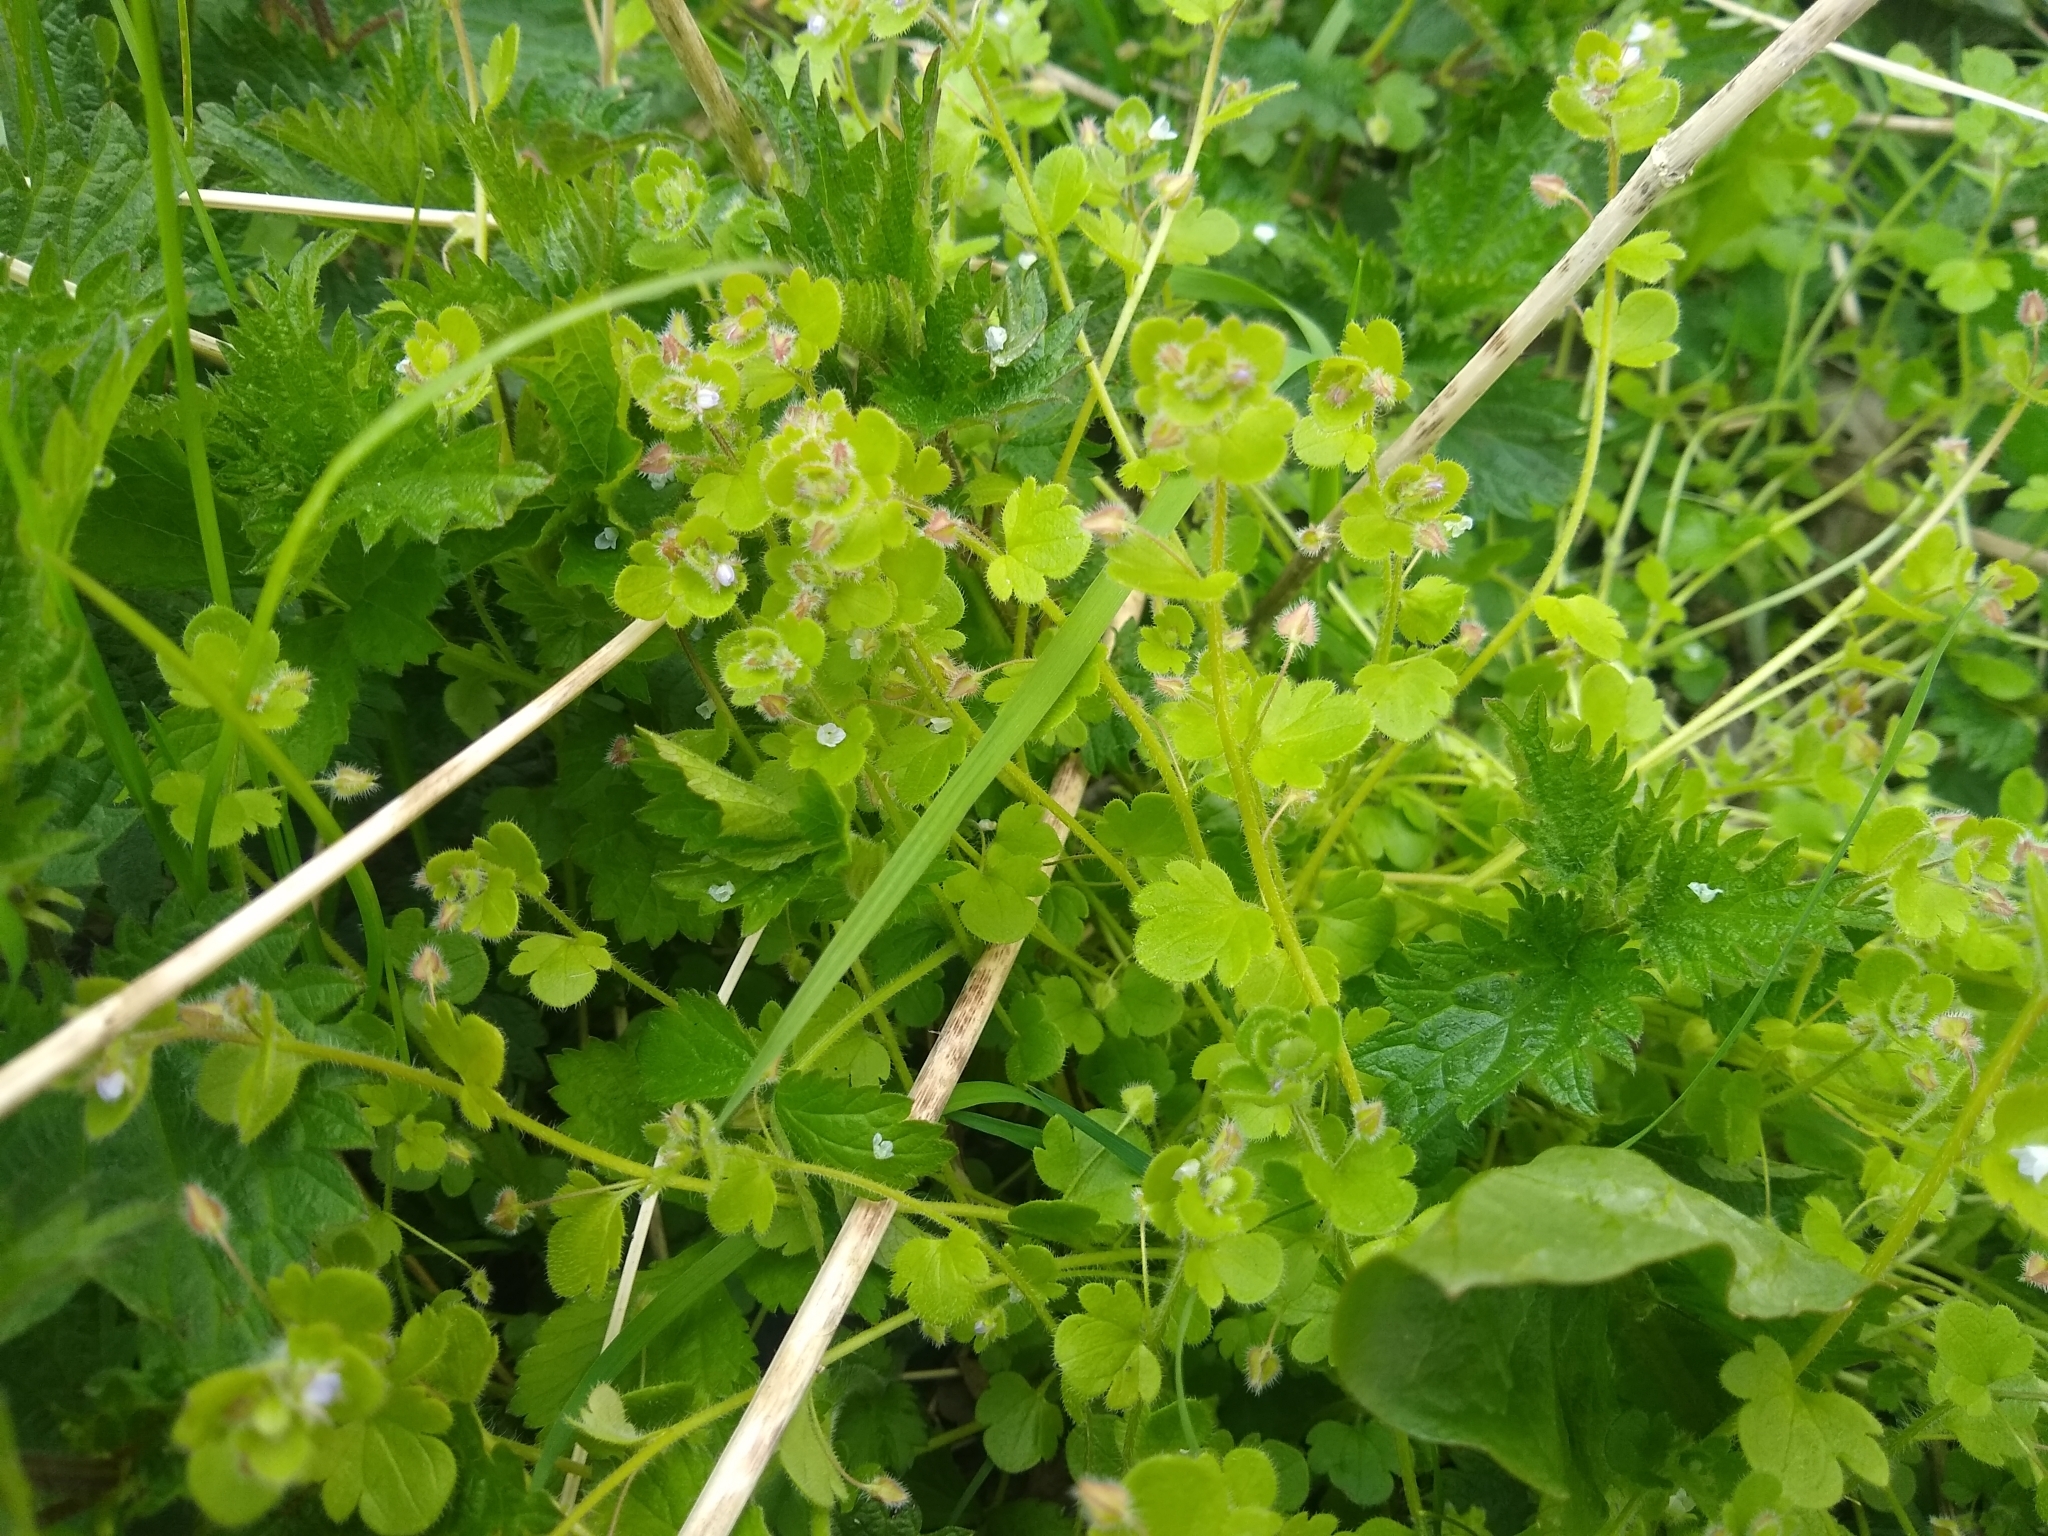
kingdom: Plantae
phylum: Tracheophyta
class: Magnoliopsida
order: Lamiales
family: Plantaginaceae
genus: Veronica
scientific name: Veronica sublobata
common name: False ivy-leaved speedwell
